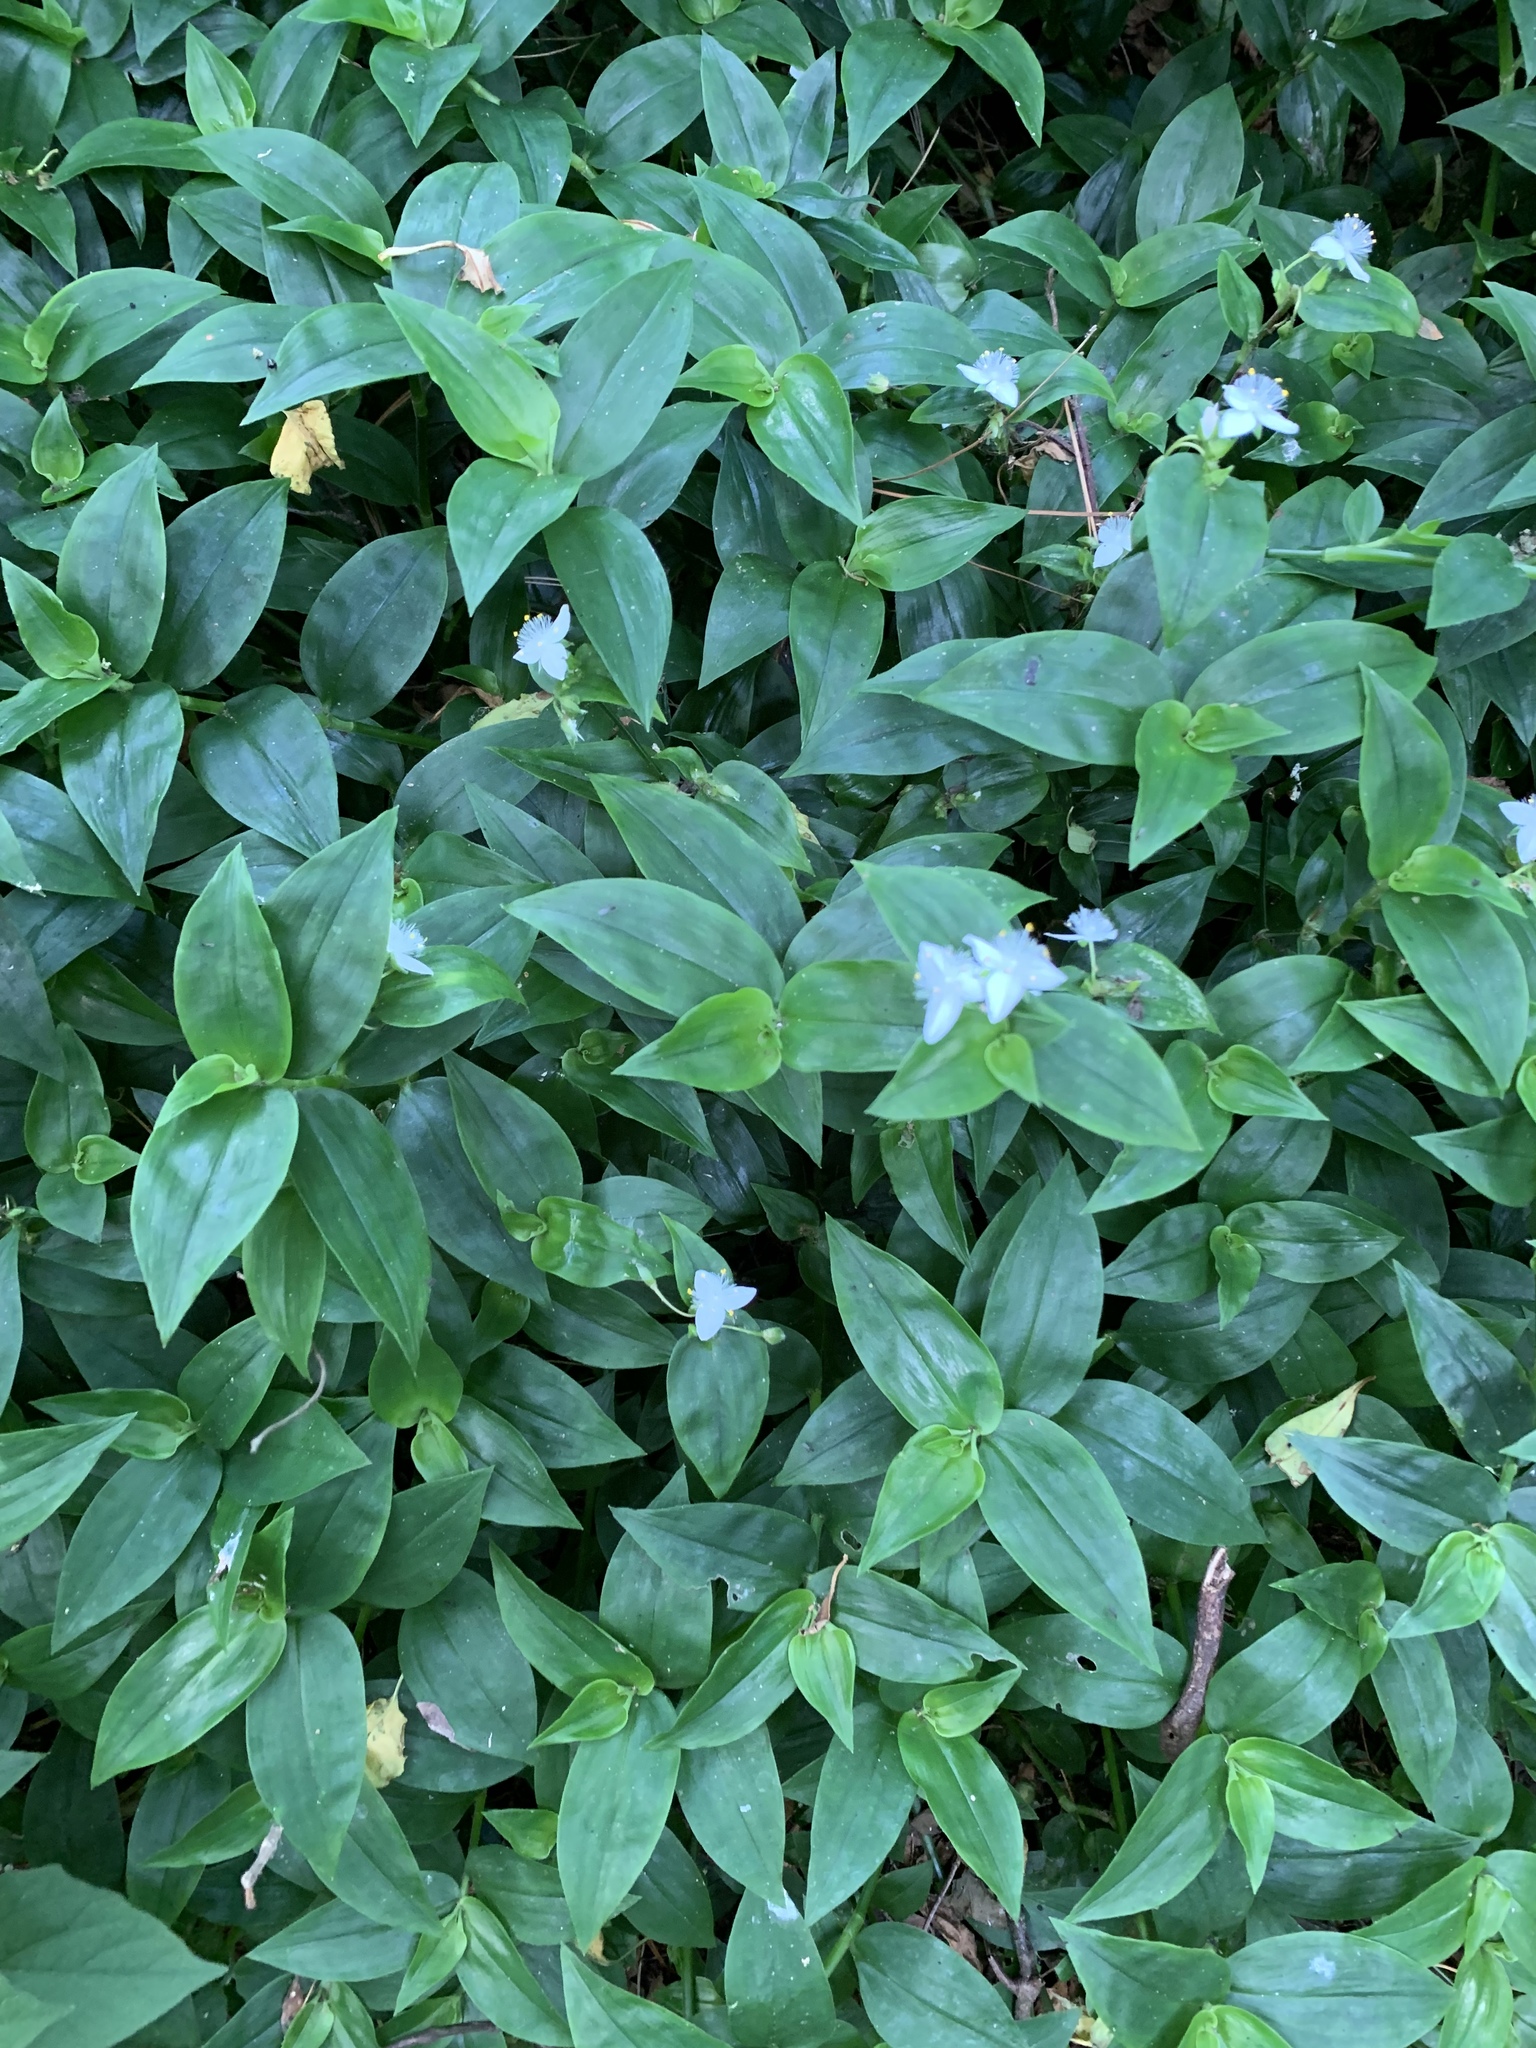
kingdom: Plantae
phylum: Tracheophyta
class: Liliopsida
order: Commelinales
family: Commelinaceae
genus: Tradescantia
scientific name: Tradescantia fluminensis
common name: Wandering-jew
